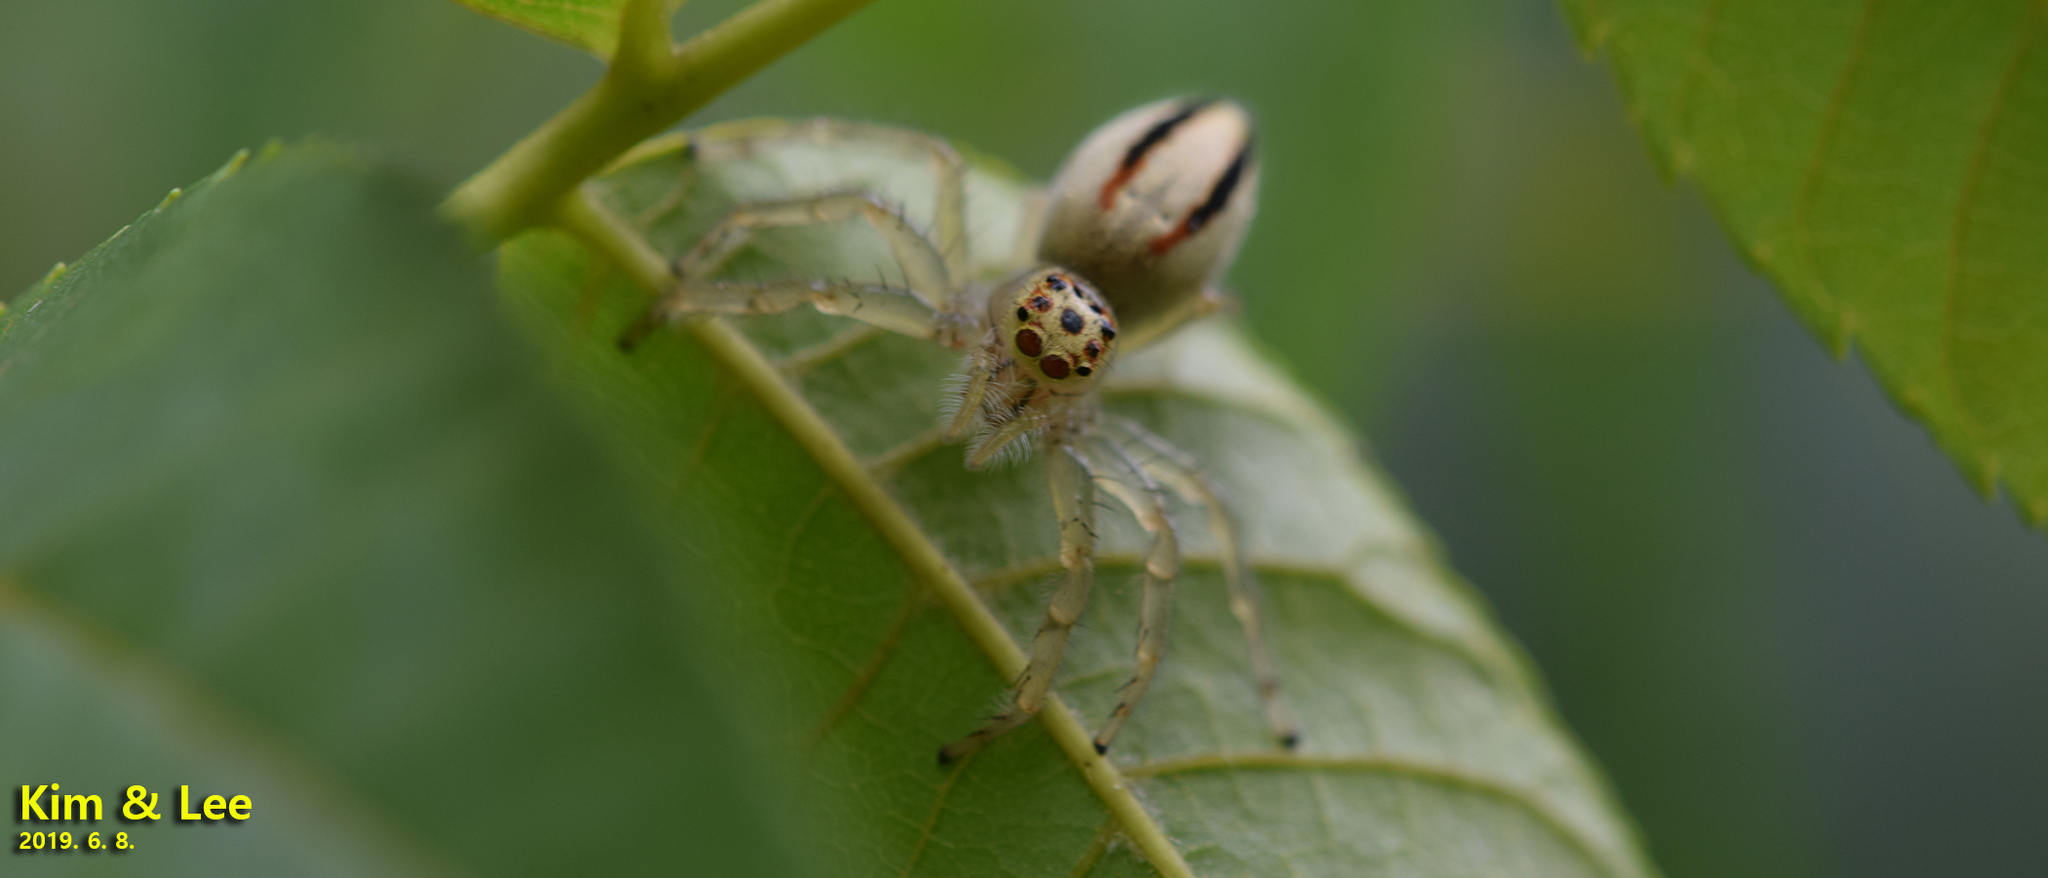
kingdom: Animalia
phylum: Arthropoda
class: Arachnida
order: Araneae
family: Salticidae
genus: Telamonia
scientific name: Telamonia vlijmi
